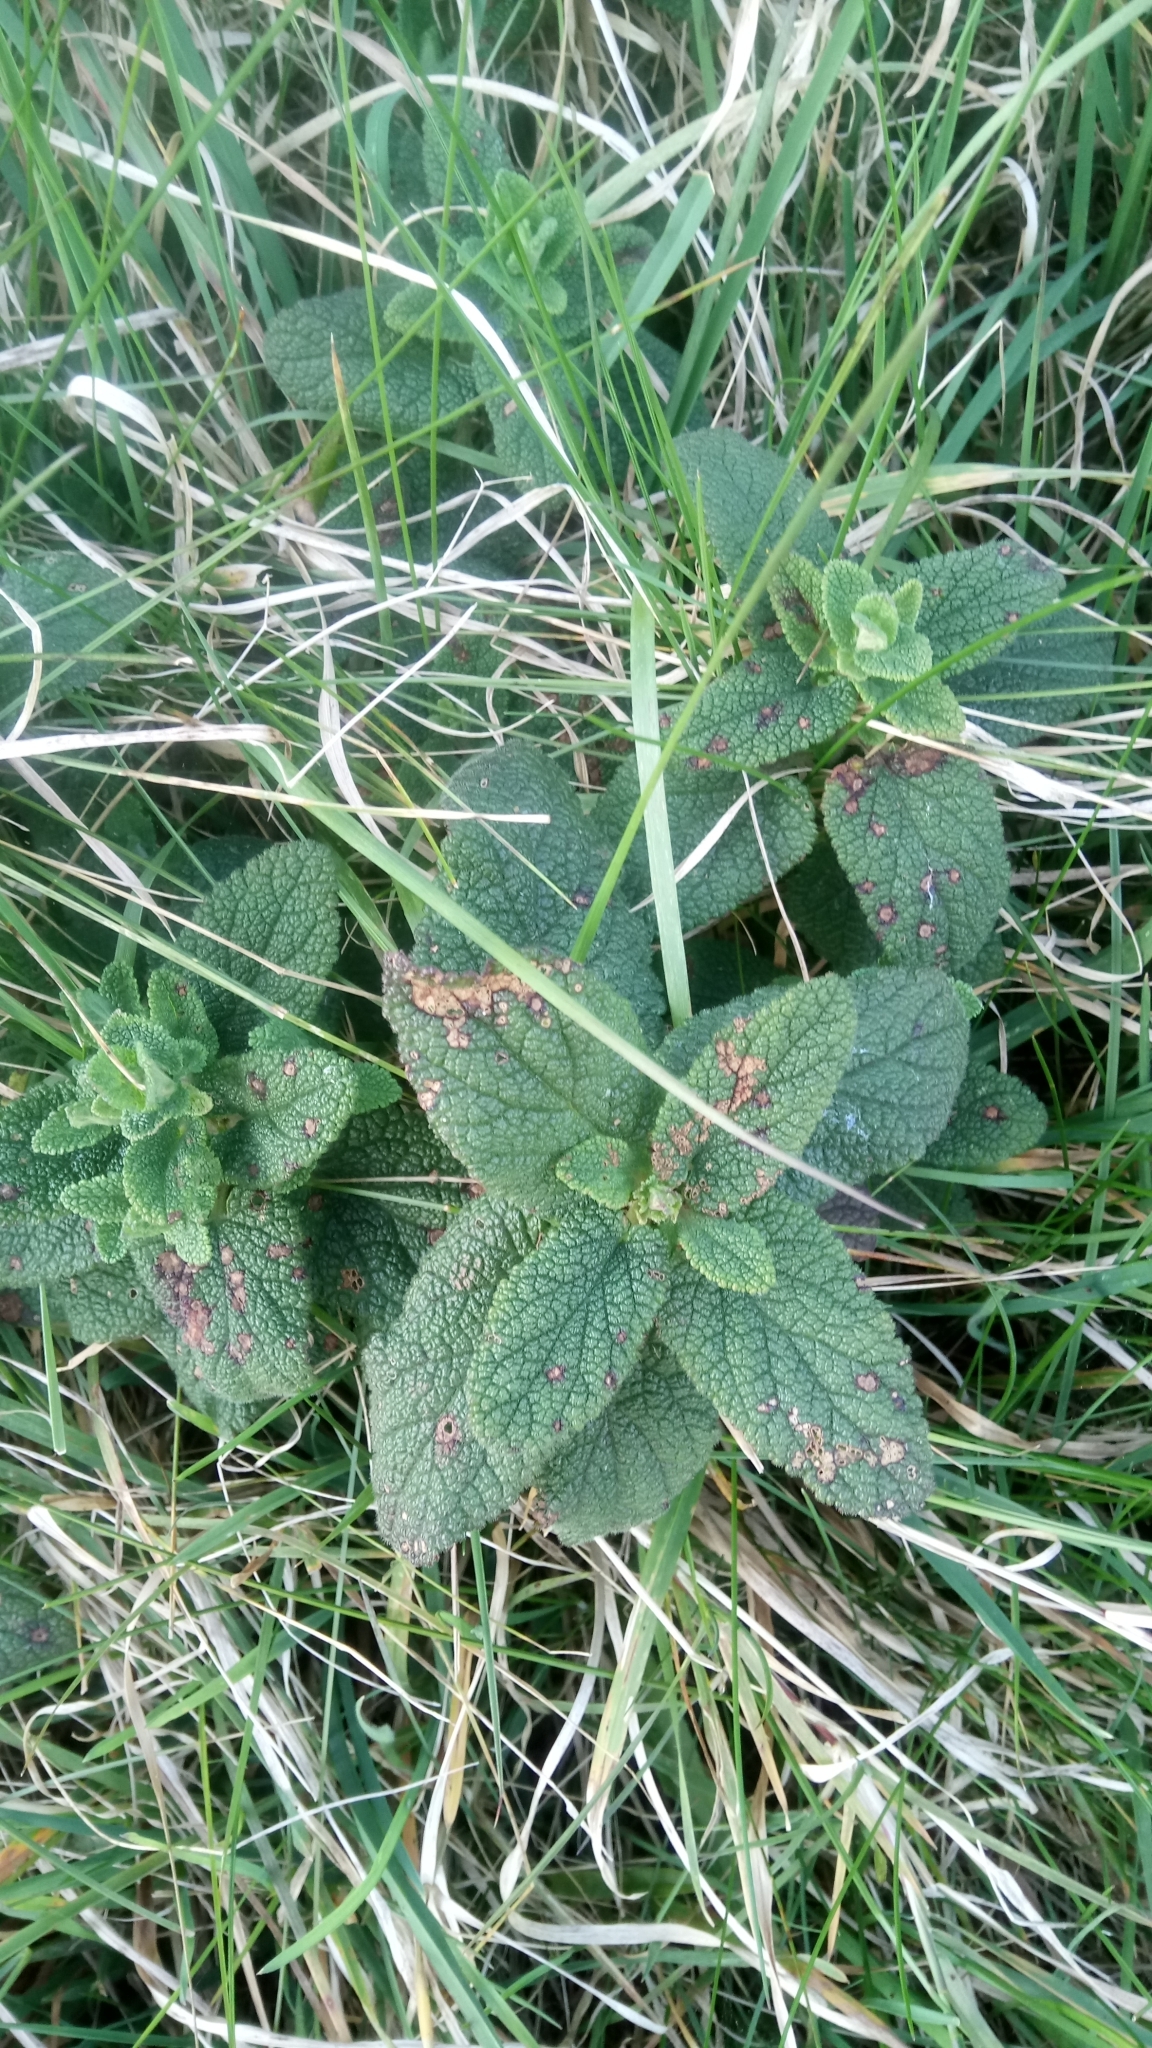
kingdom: Plantae
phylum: Tracheophyta
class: Magnoliopsida
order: Lamiales
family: Lamiaceae
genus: Teucrium
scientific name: Teucrium scorodonia
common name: Woodland germander
